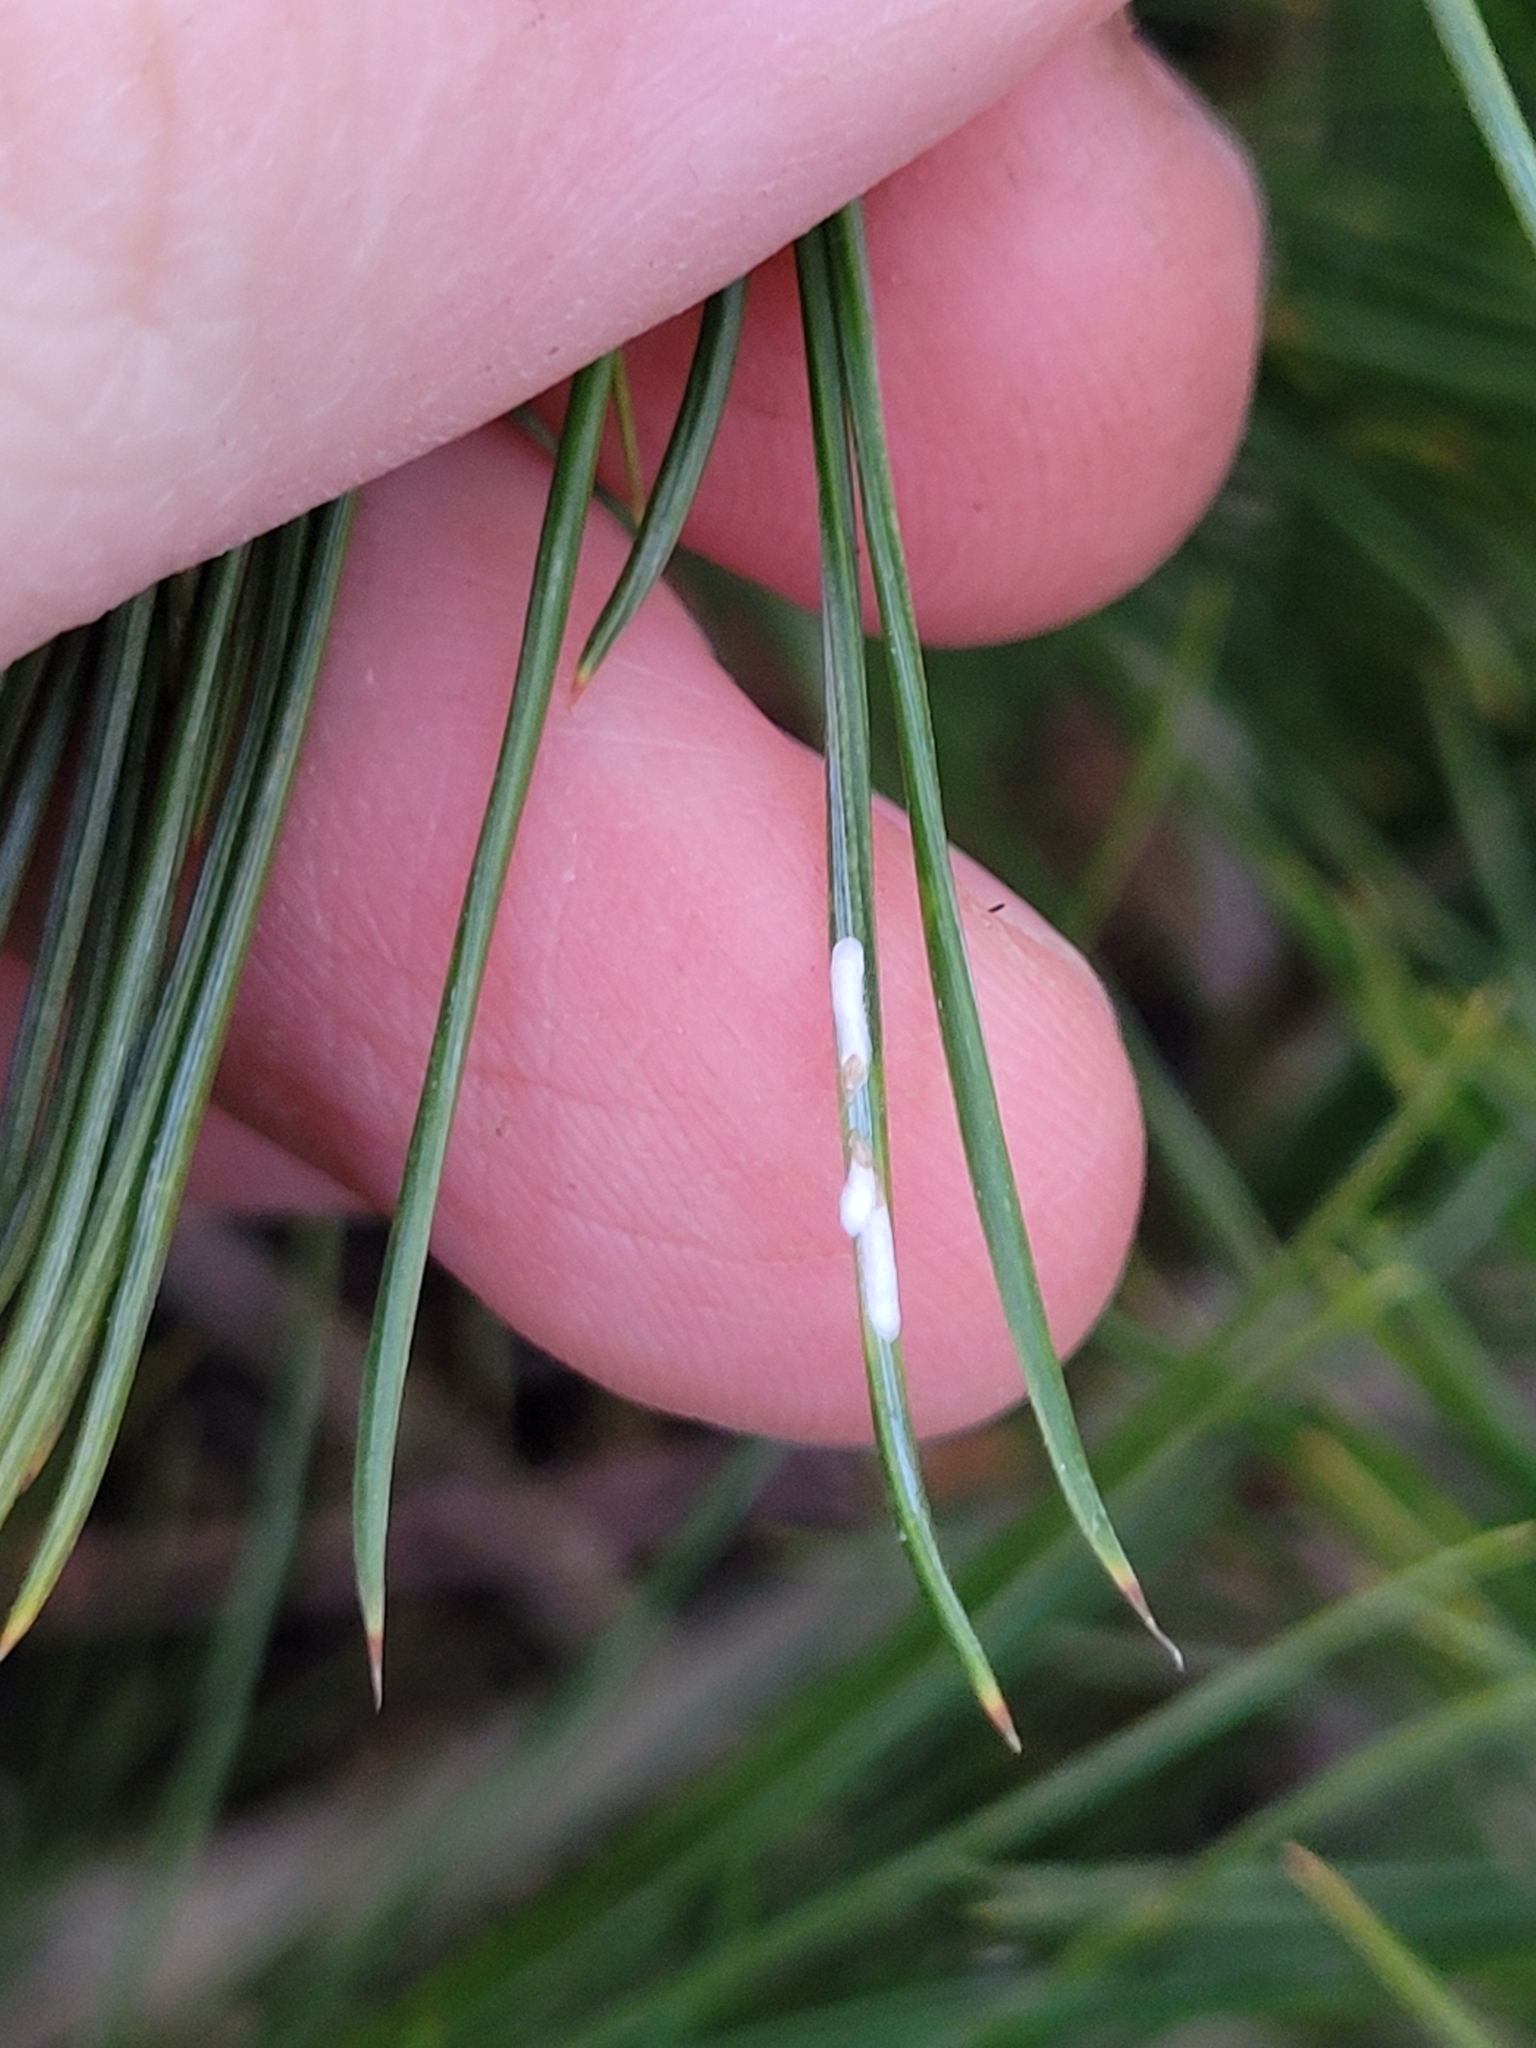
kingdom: Animalia
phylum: Arthropoda
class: Insecta
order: Hemiptera
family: Diaspididae
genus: Chionaspis
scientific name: Chionaspis pinifoliae
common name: Pine leaf scale
